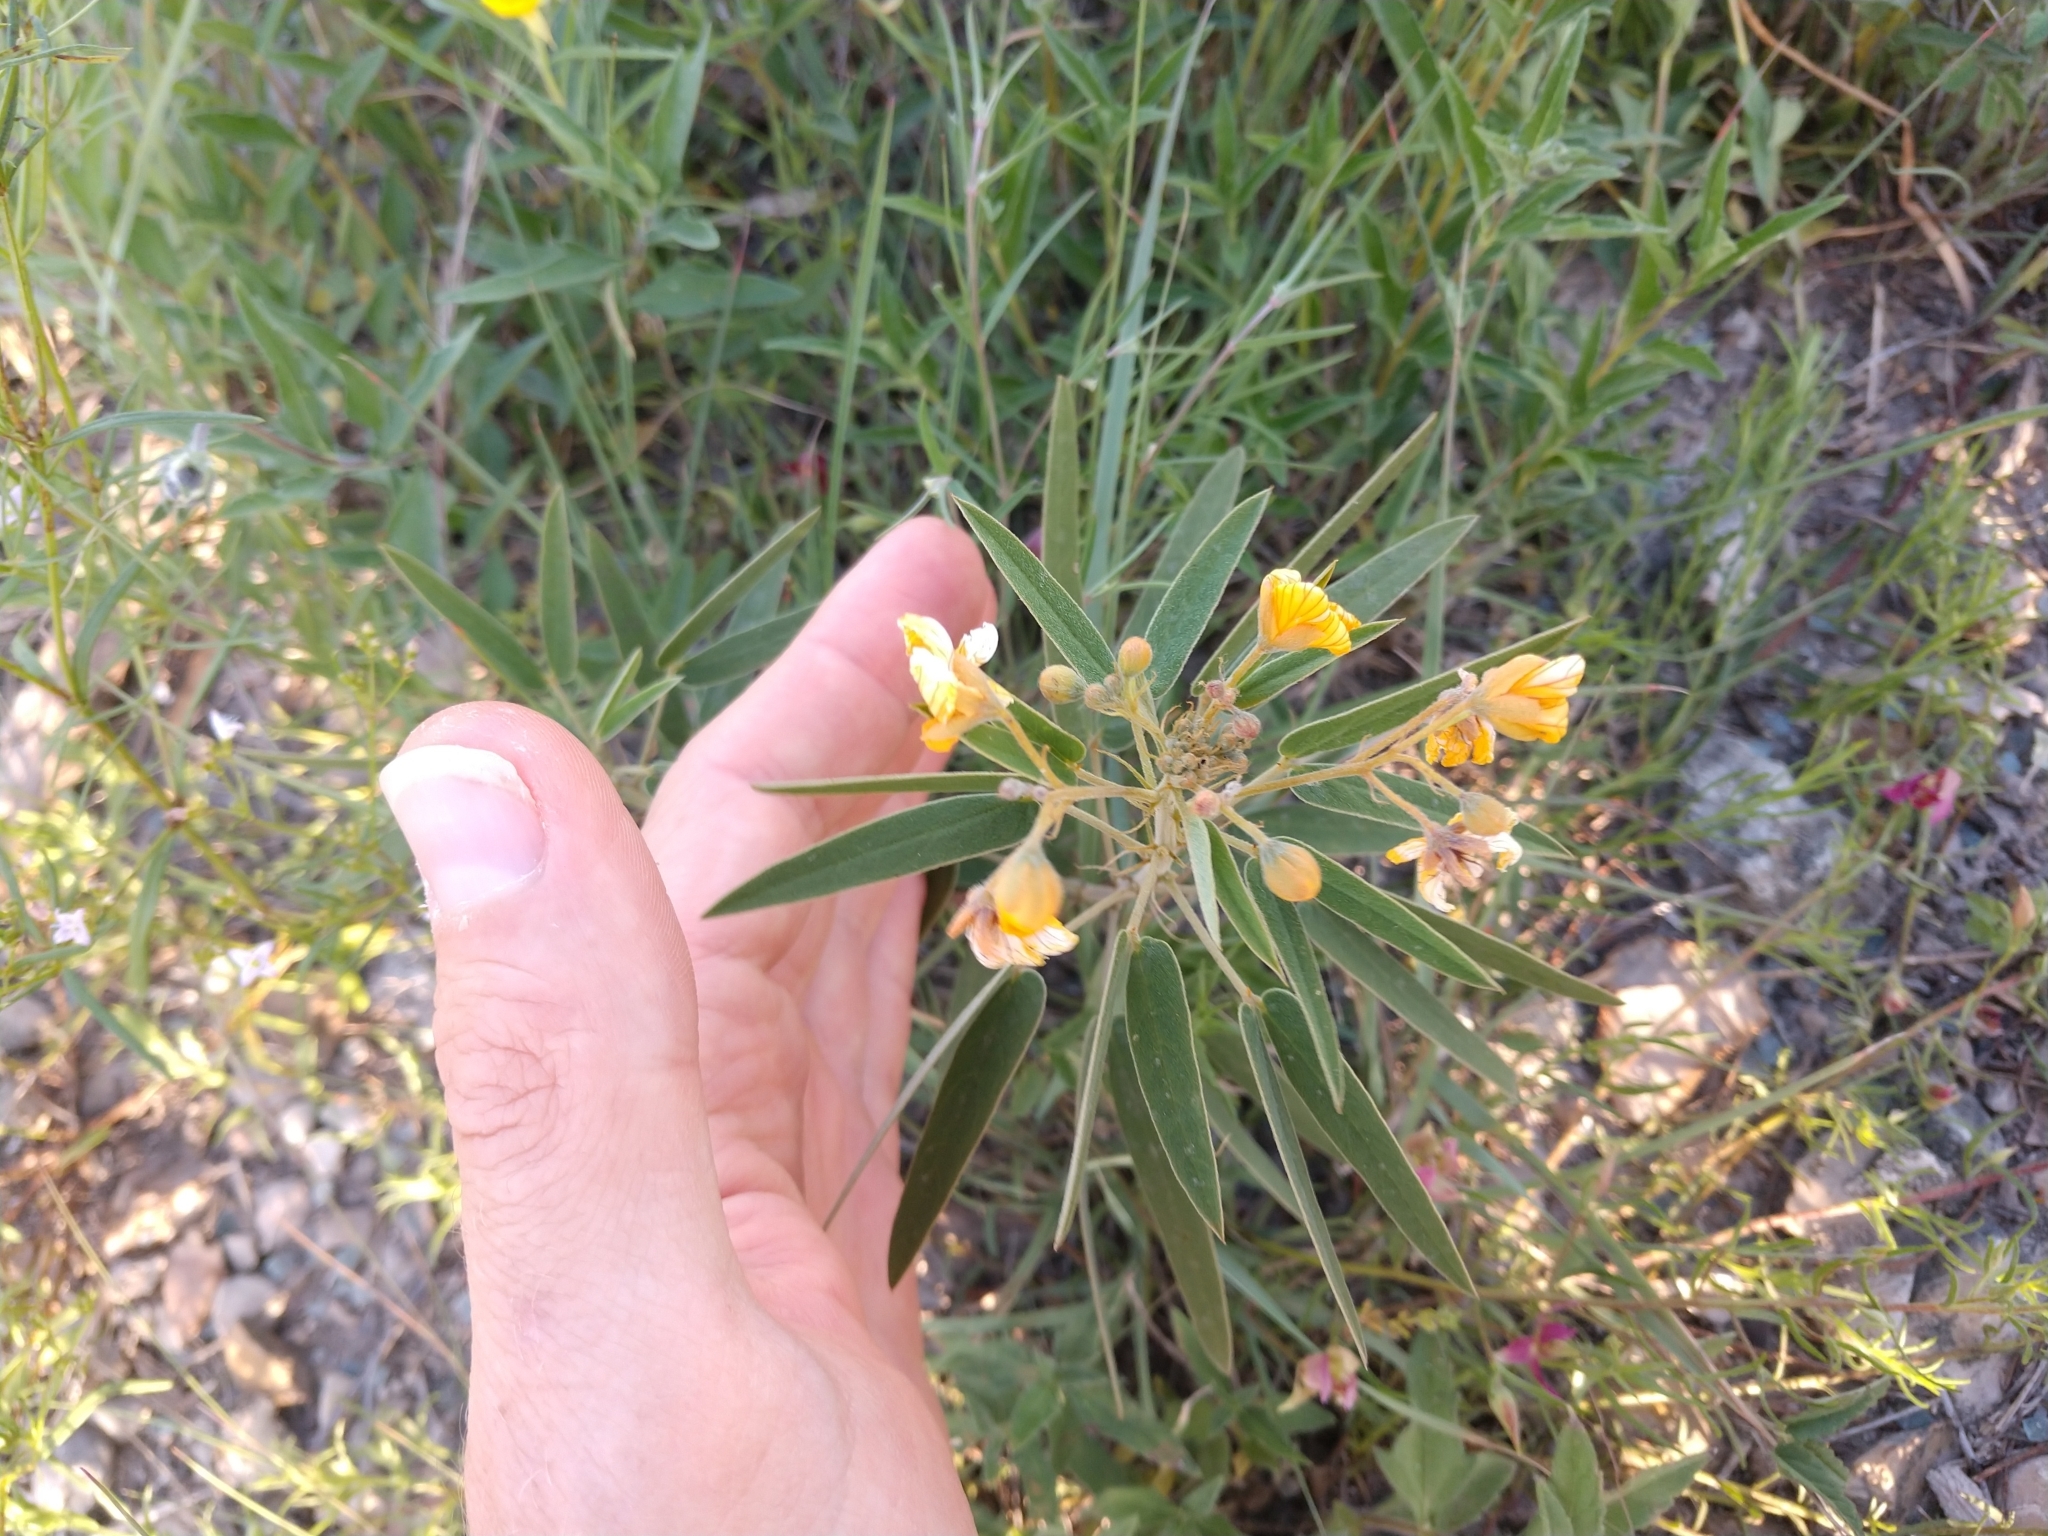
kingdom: Plantae
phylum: Tracheophyta
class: Magnoliopsida
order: Fabales
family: Fabaceae
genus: Senna
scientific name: Senna roemeriana
